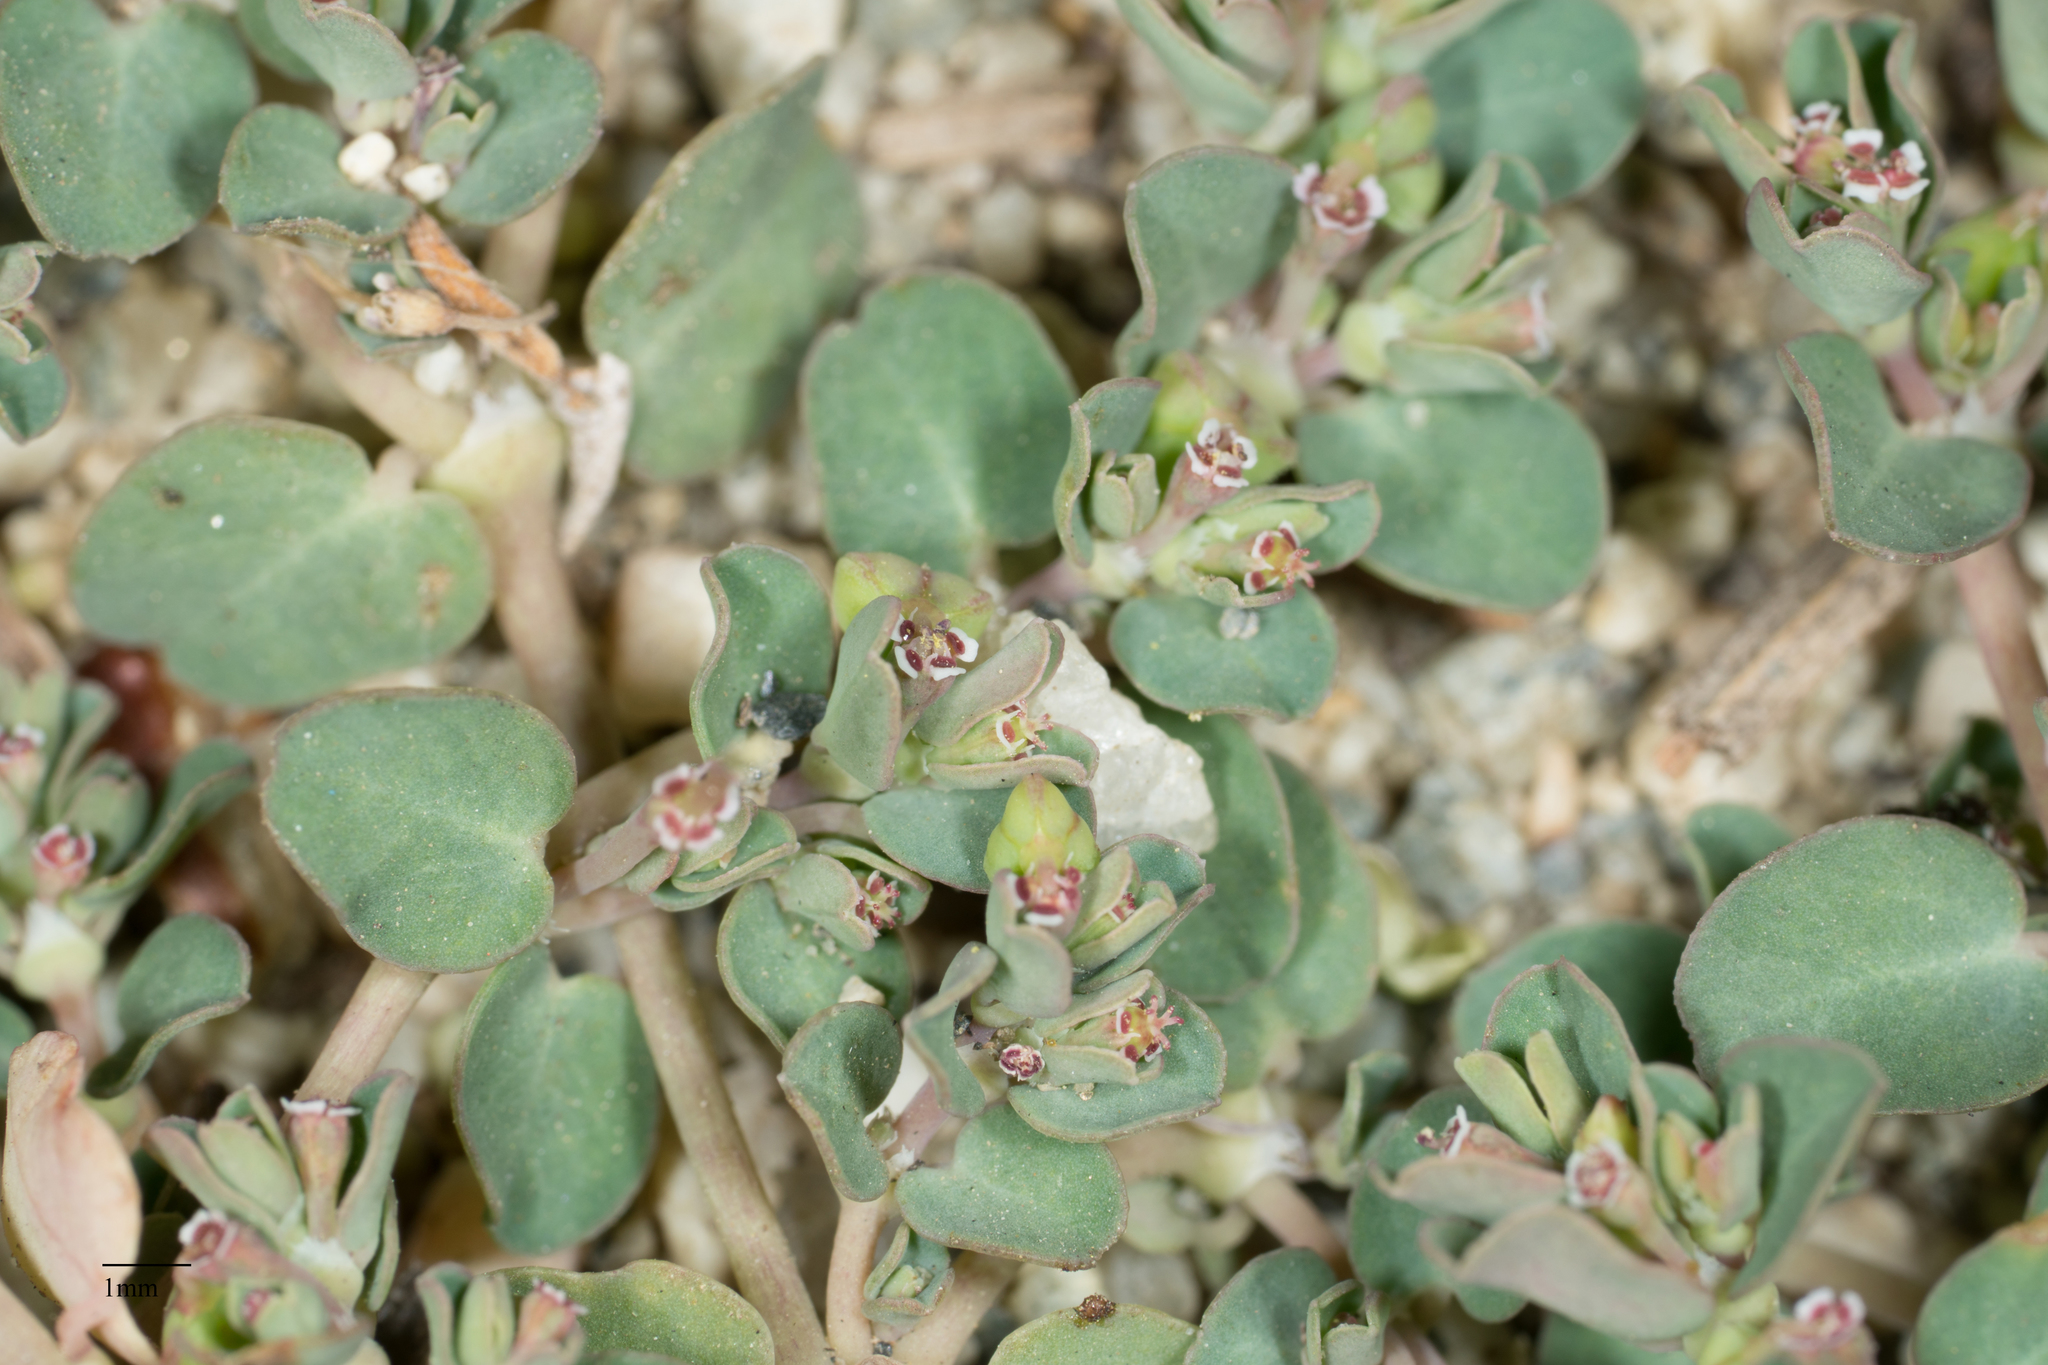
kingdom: Plantae
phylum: Tracheophyta
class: Magnoliopsida
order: Malpighiales
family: Euphorbiaceae
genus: Euphorbia
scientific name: Euphorbia serpens
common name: Matted sandmat
